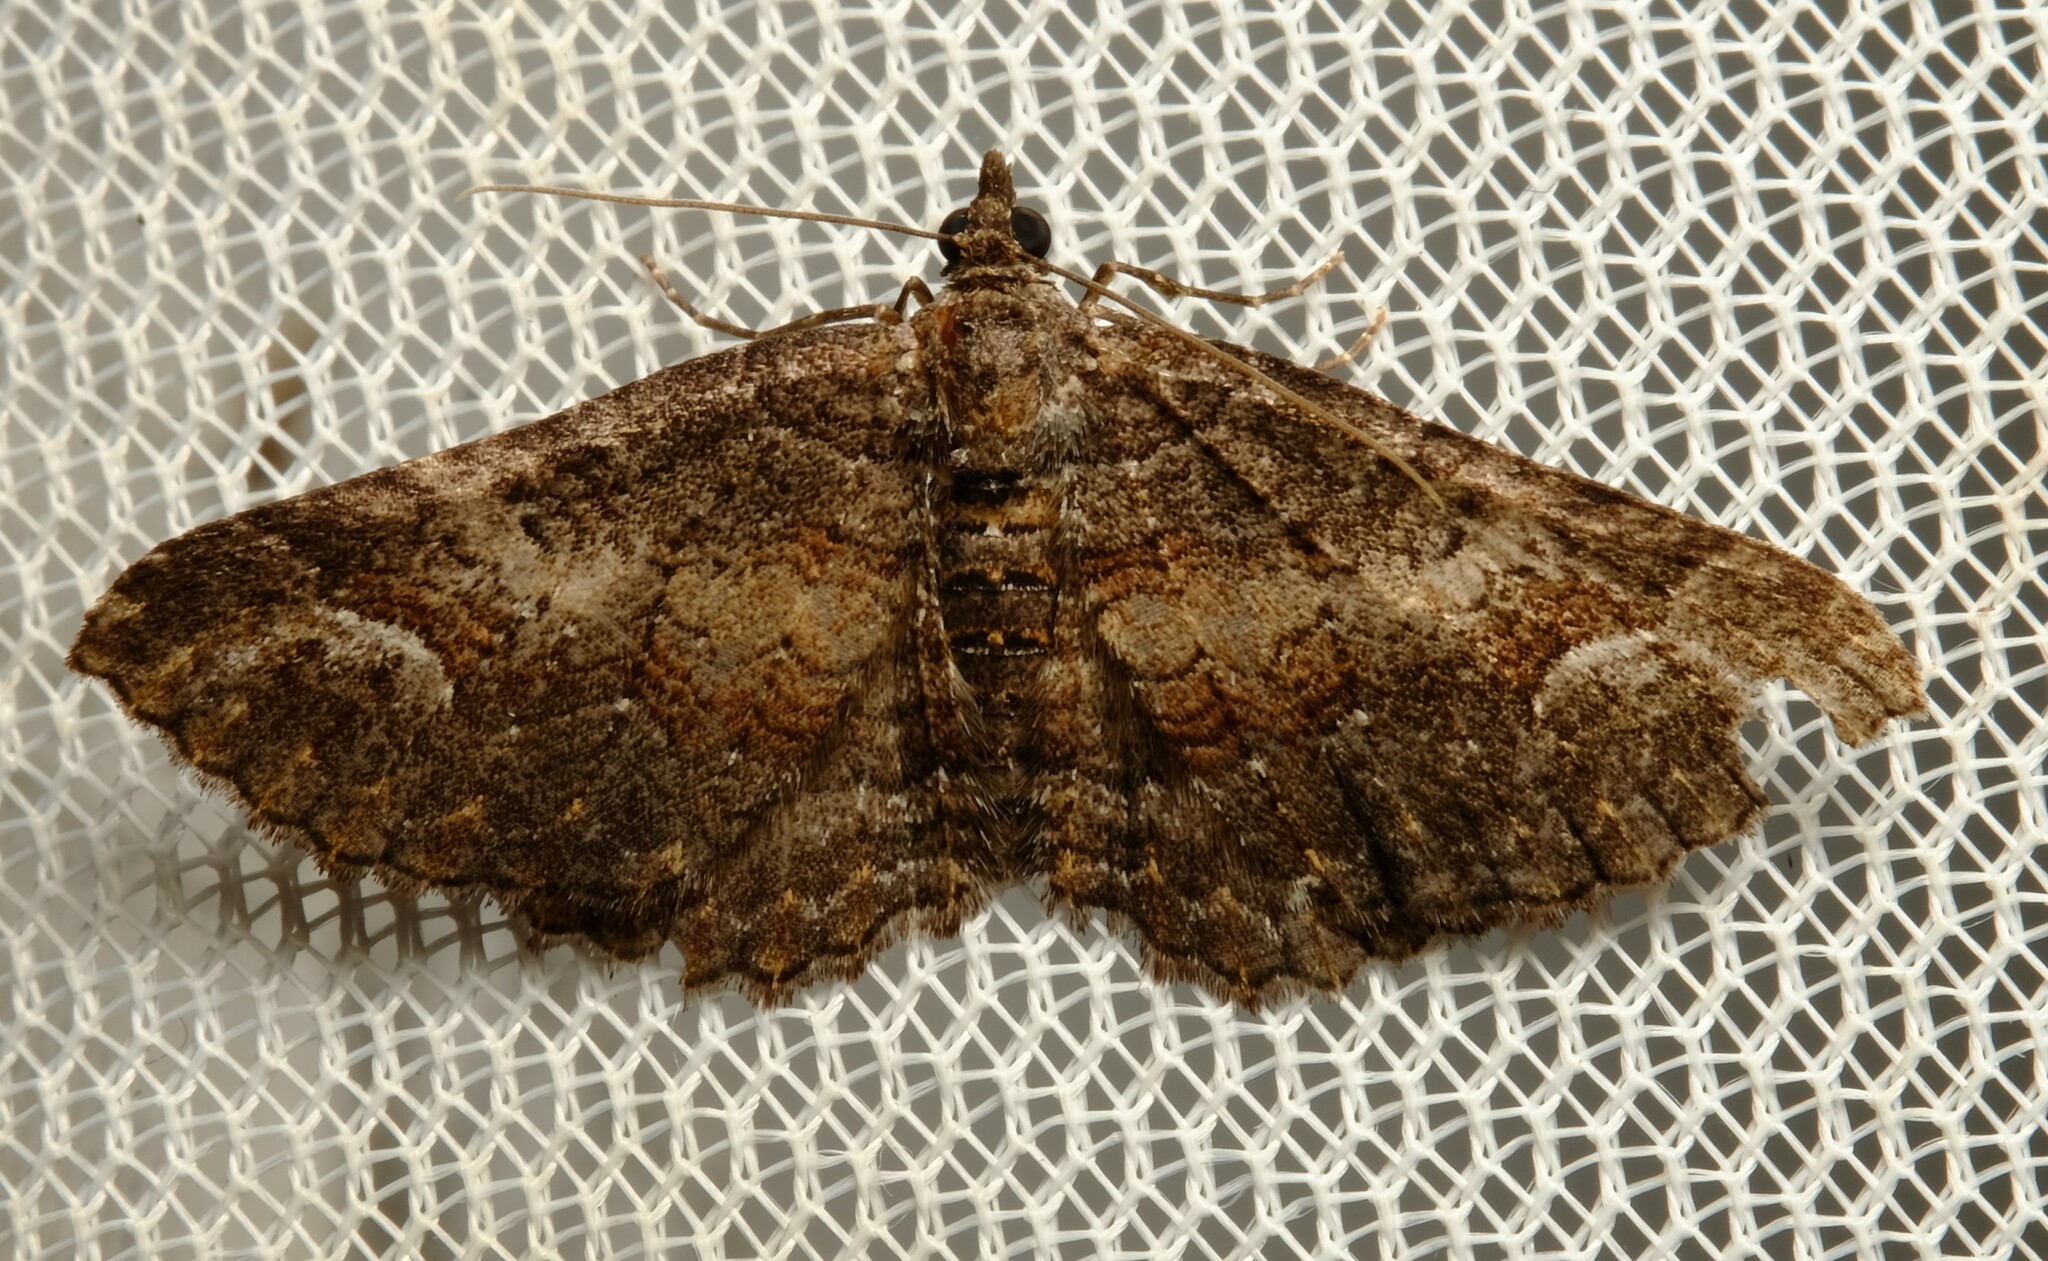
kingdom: Animalia
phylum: Arthropoda
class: Insecta
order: Lepidoptera
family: Geometridae
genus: Eupithecia
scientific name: Eupithecia Eucymatoge scotodes
